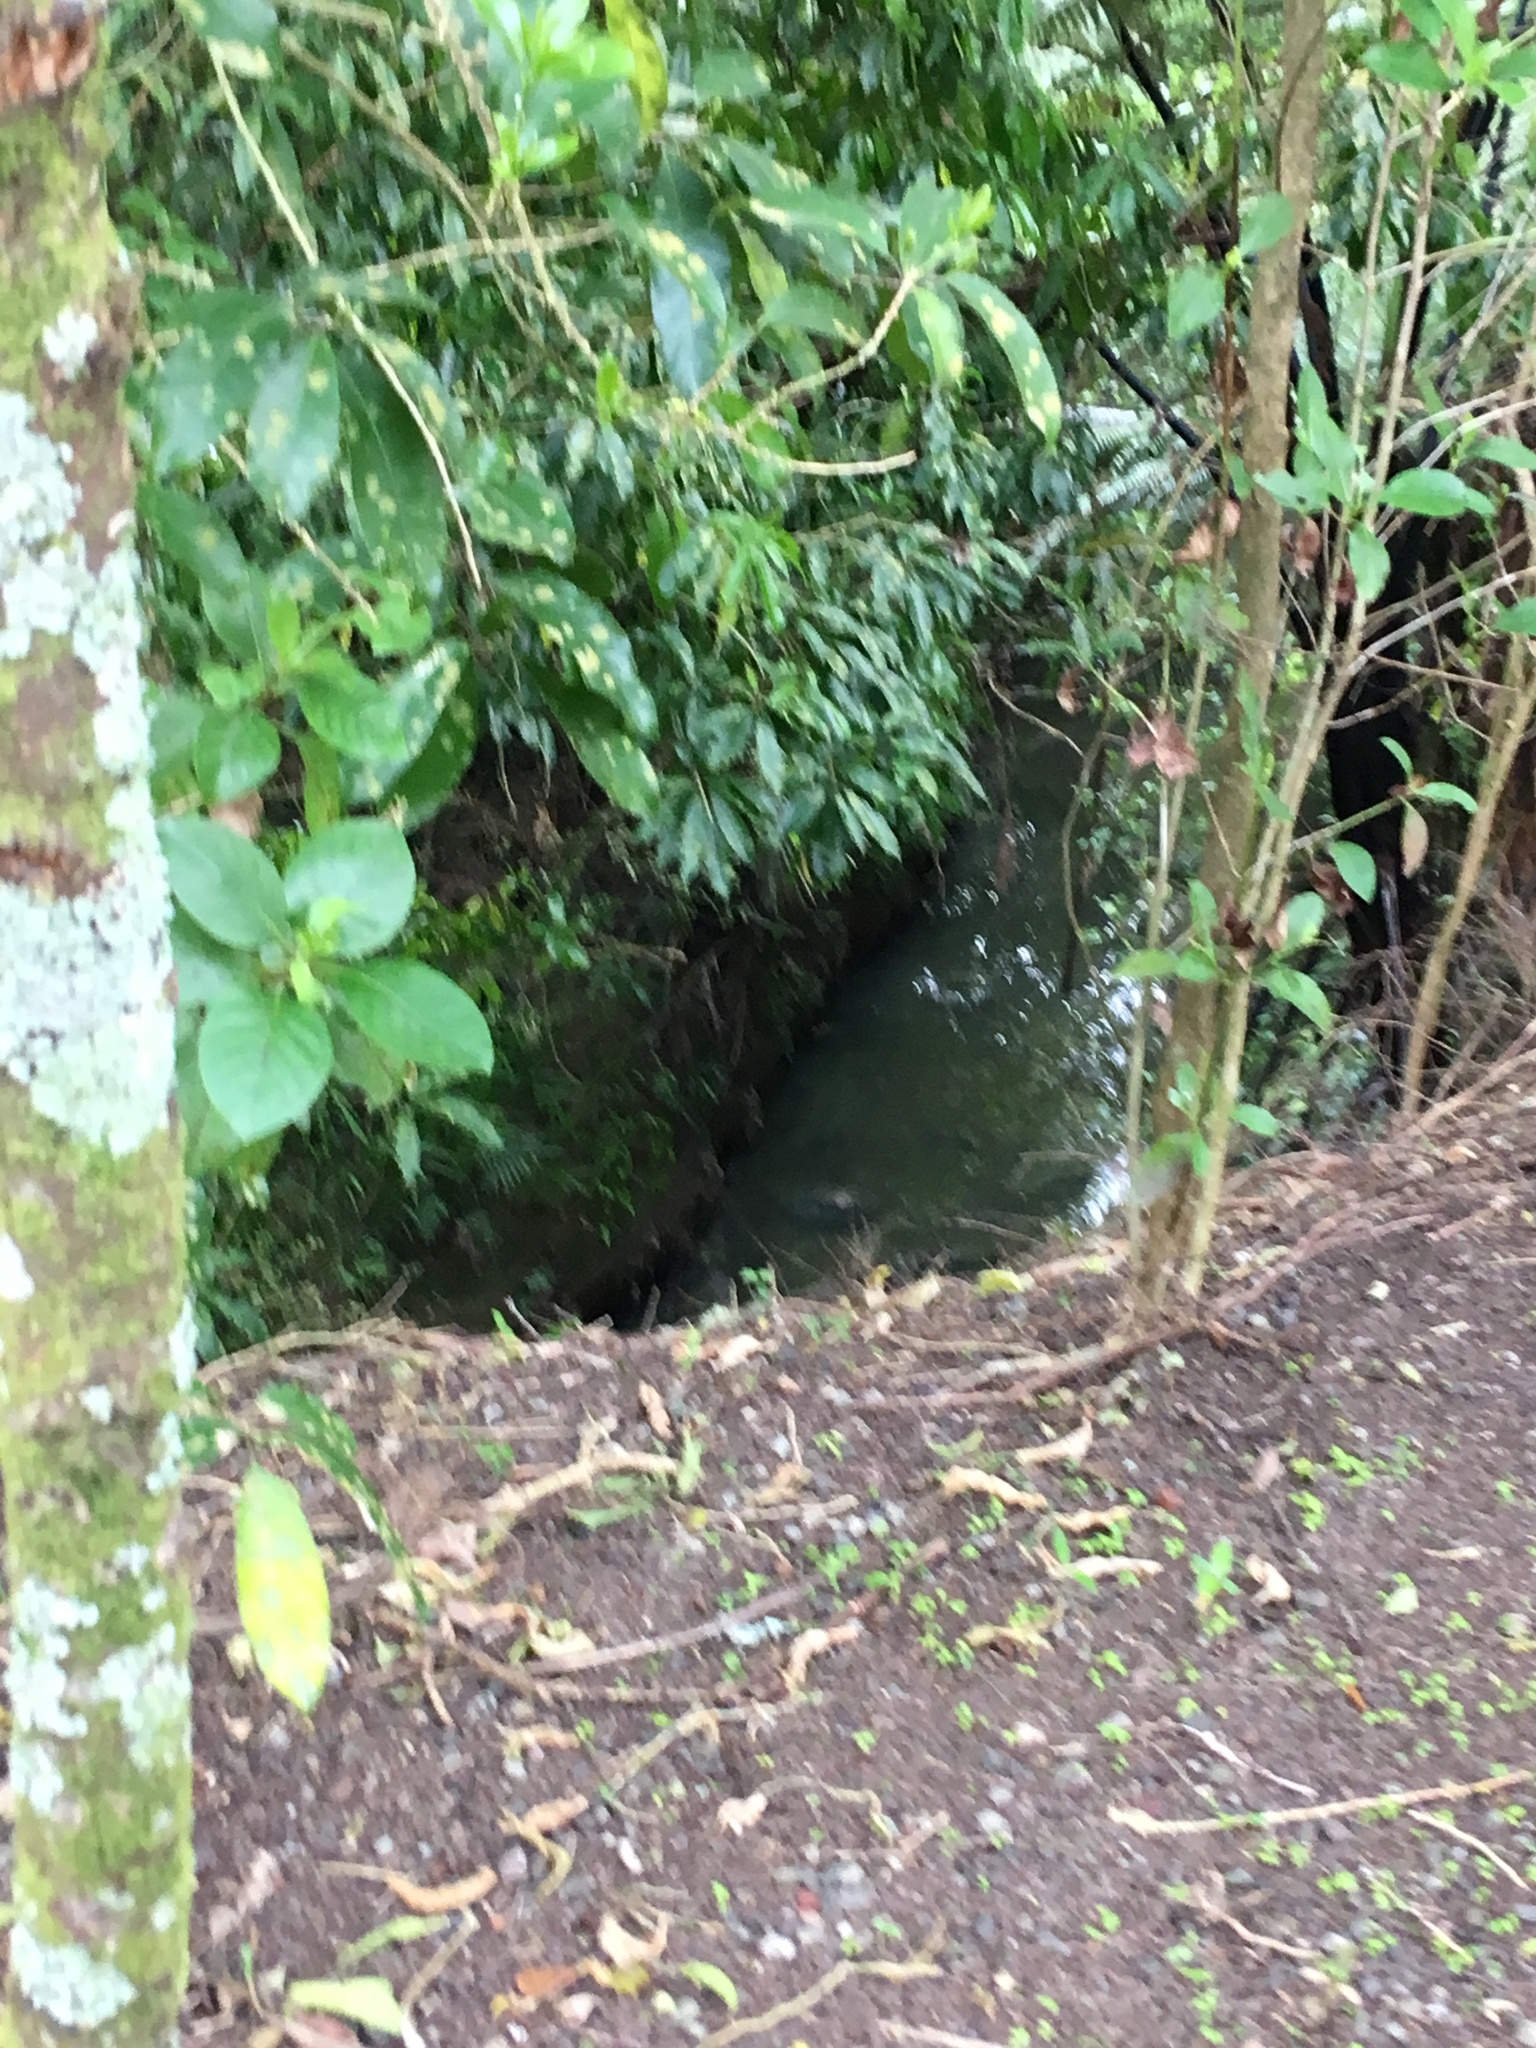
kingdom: Plantae
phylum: Tracheophyta
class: Magnoliopsida
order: Malpighiales
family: Violaceae
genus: Melicytus
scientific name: Melicytus ramiflorus
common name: Mahoe
